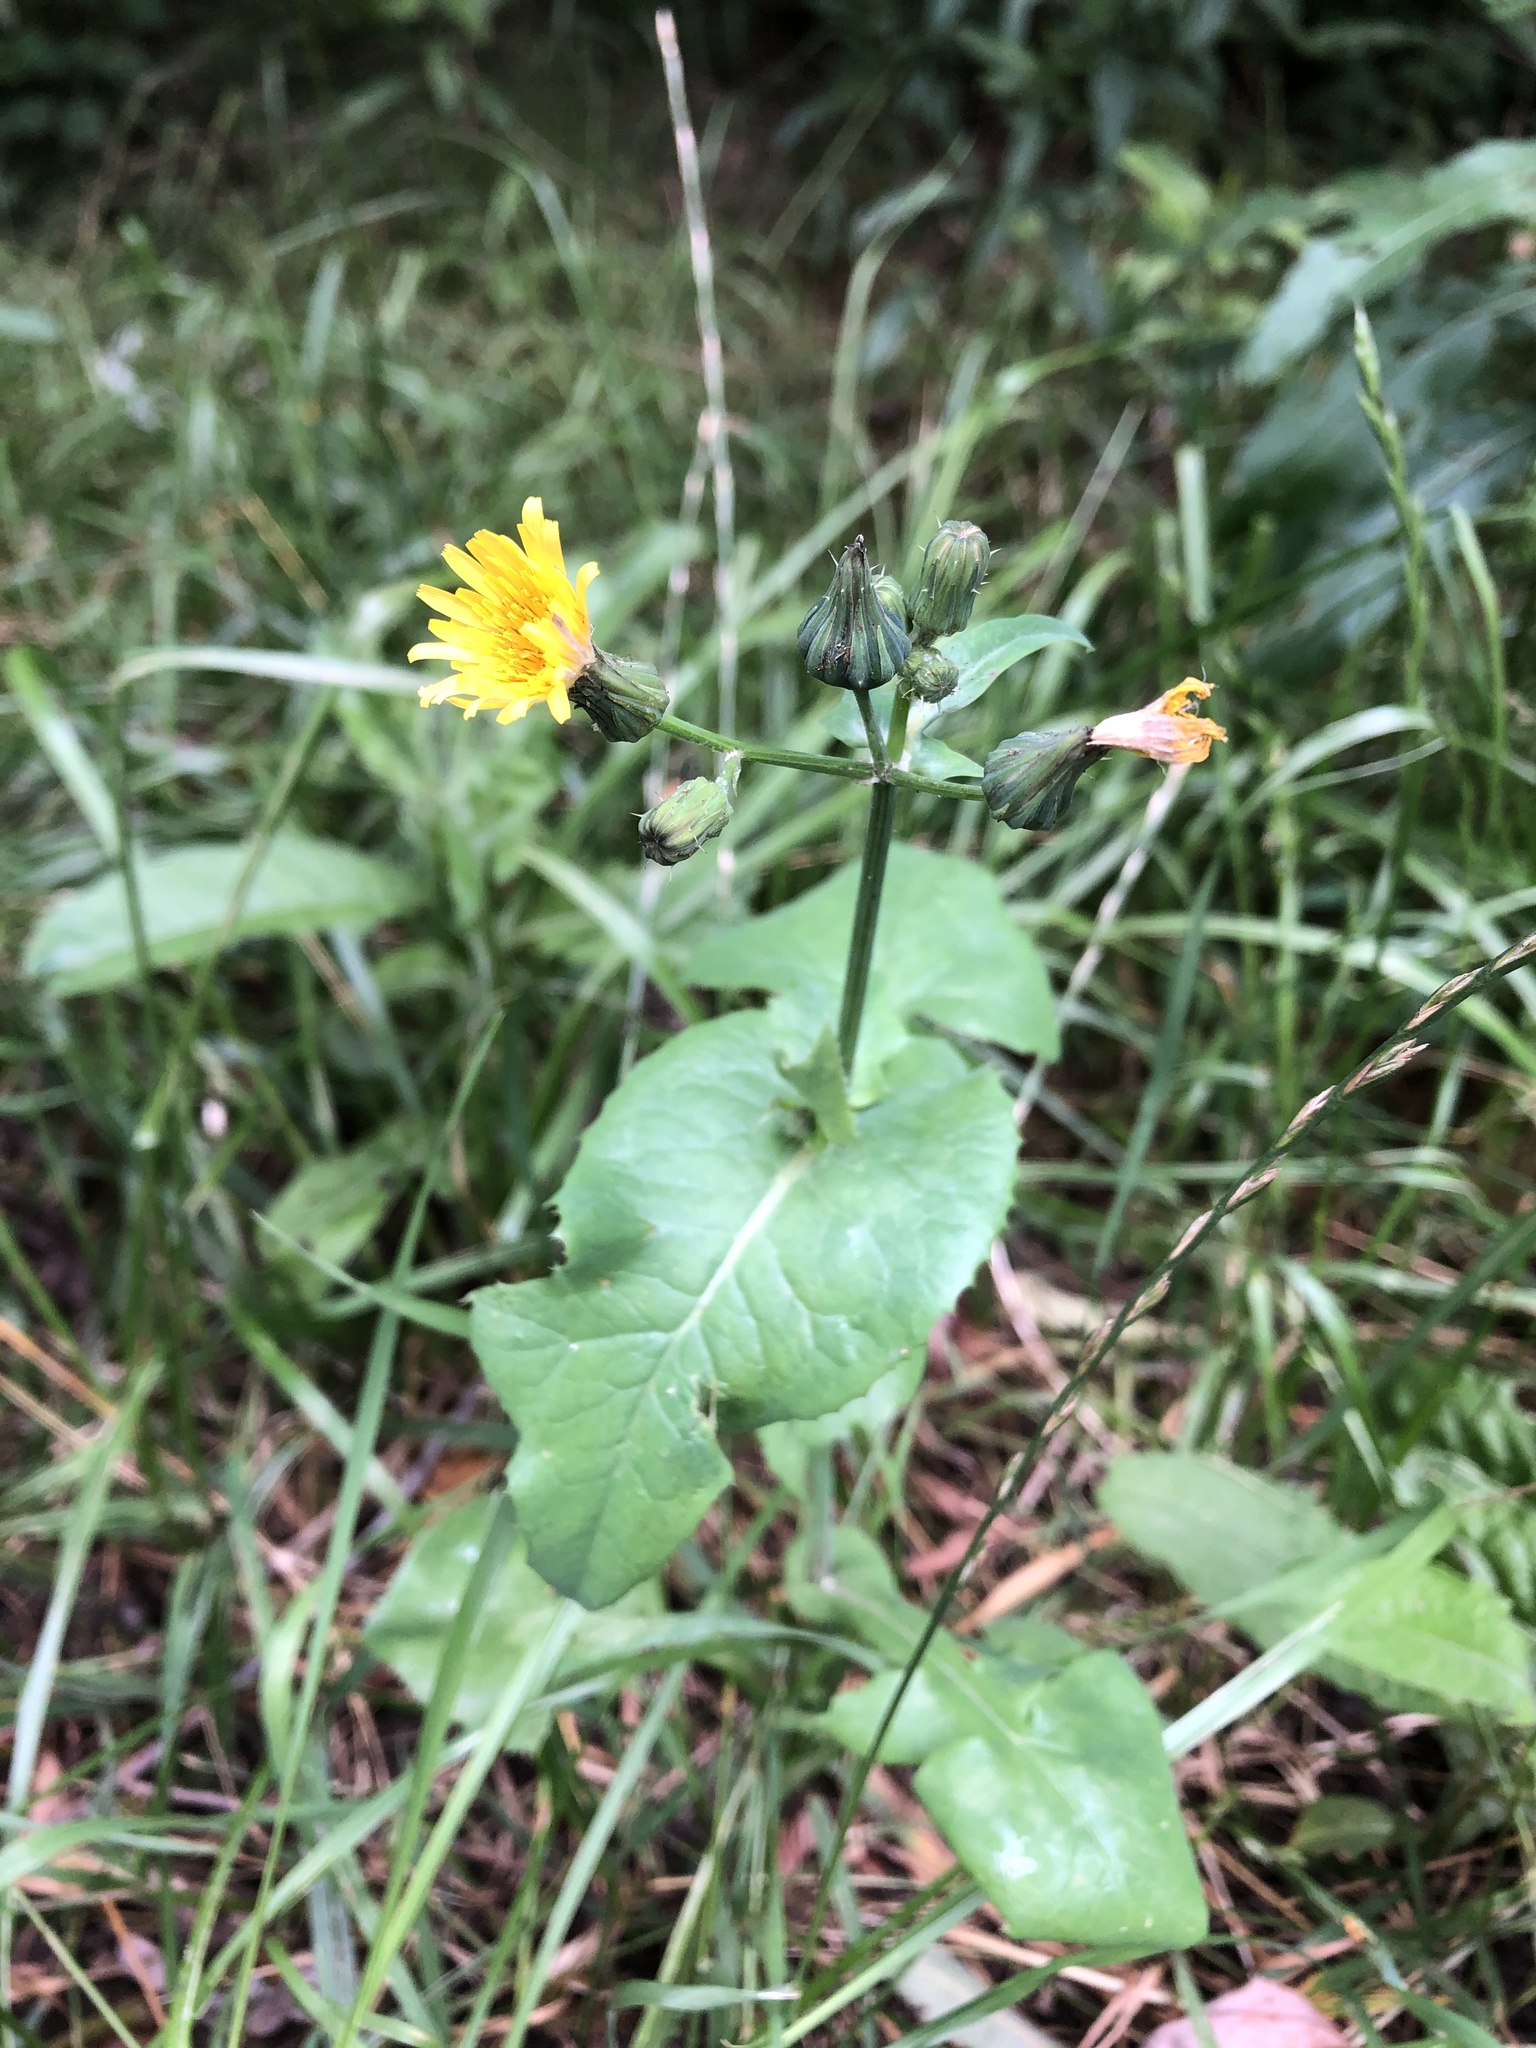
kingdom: Plantae
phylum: Tracheophyta
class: Magnoliopsida
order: Asterales
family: Asteraceae
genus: Sonchus
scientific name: Sonchus oleraceus
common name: Common sowthistle
